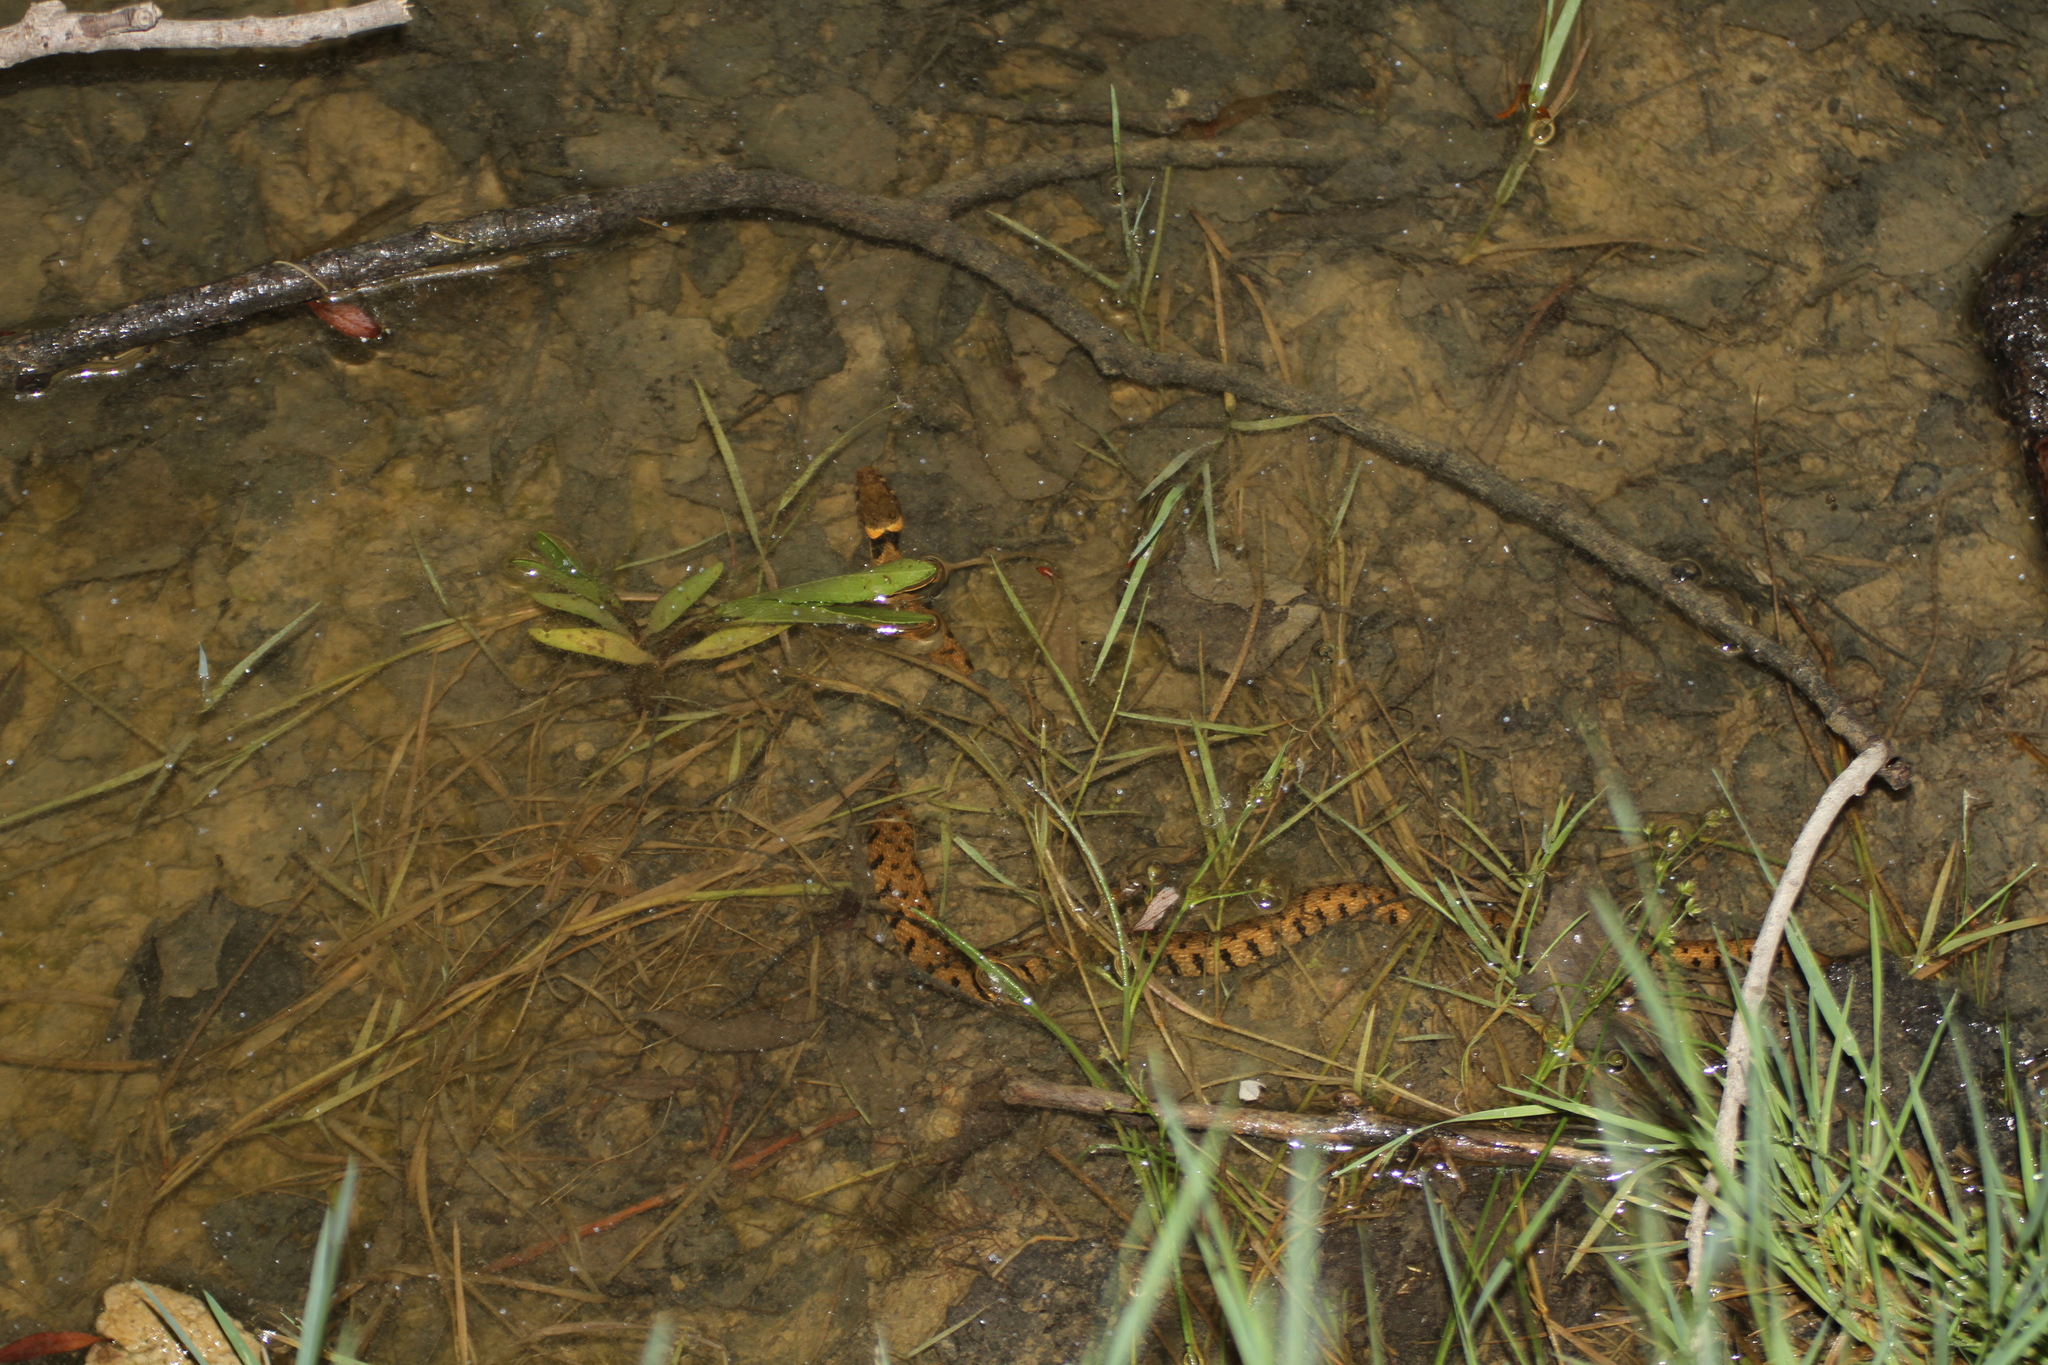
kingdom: Animalia
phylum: Chordata
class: Squamata
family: Colubridae
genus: Natrix
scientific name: Natrix helvetica
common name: Banded grass snake
